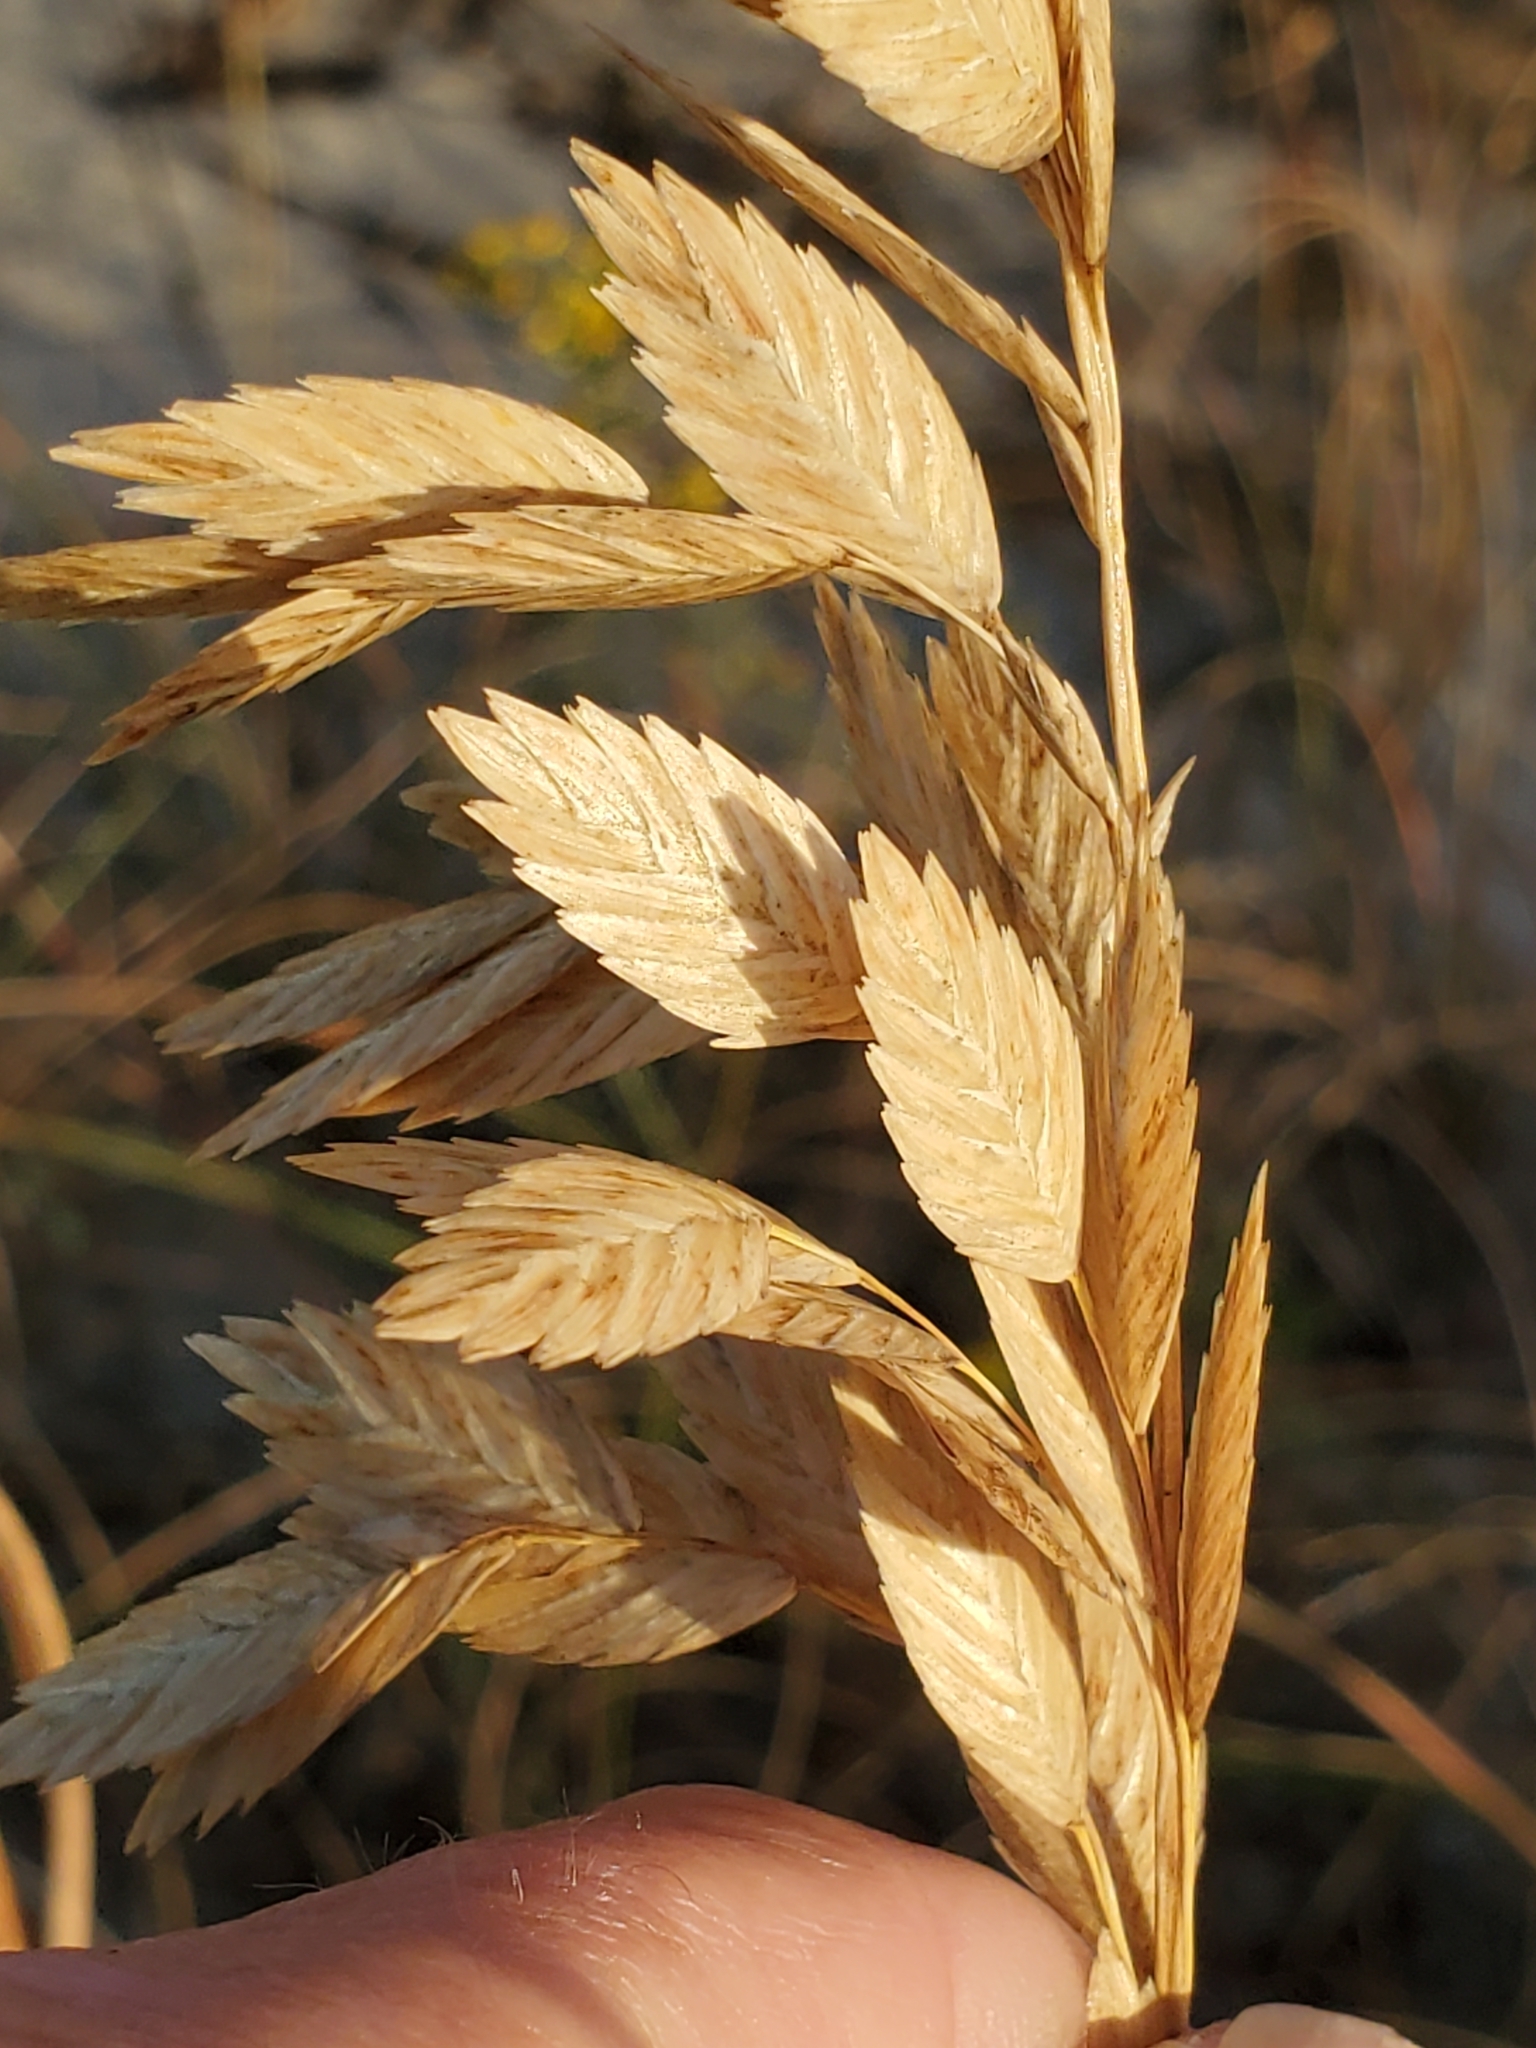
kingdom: Plantae
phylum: Tracheophyta
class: Liliopsida
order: Poales
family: Poaceae
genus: Uniola
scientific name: Uniola paniculata
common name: Seaside-oats
